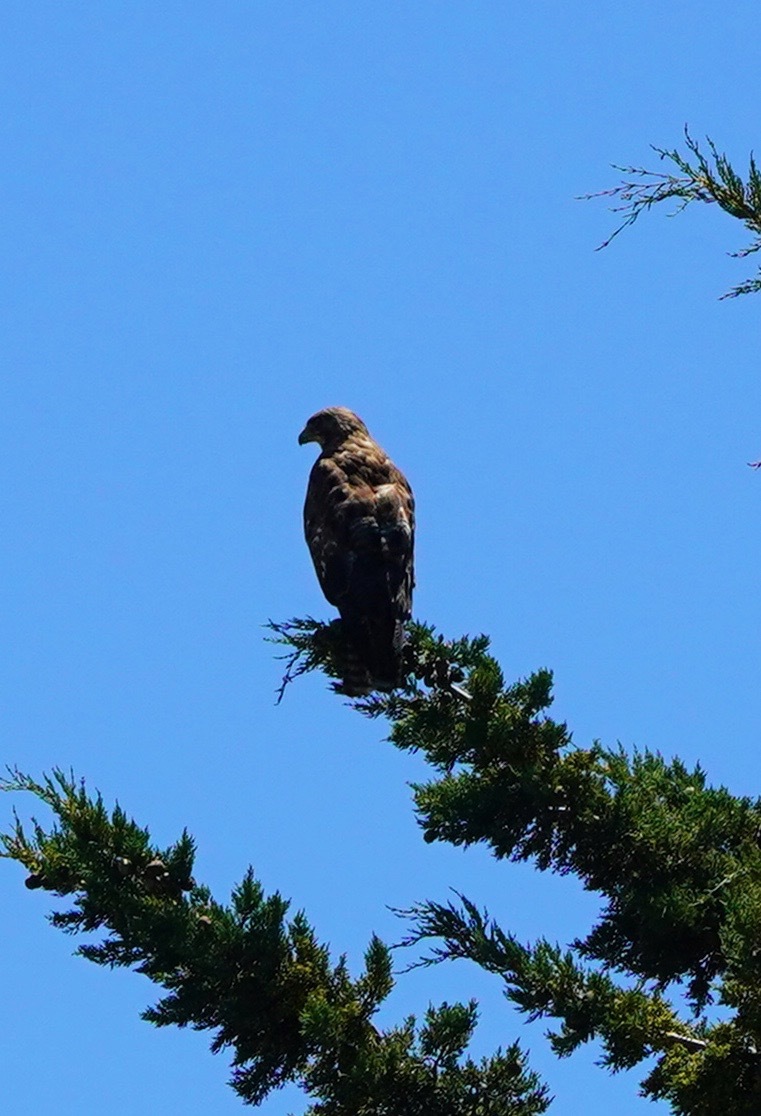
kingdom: Animalia
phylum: Chordata
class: Aves
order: Accipitriformes
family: Accipitridae
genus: Buteo
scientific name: Buteo jamaicensis
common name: Red-tailed hawk
